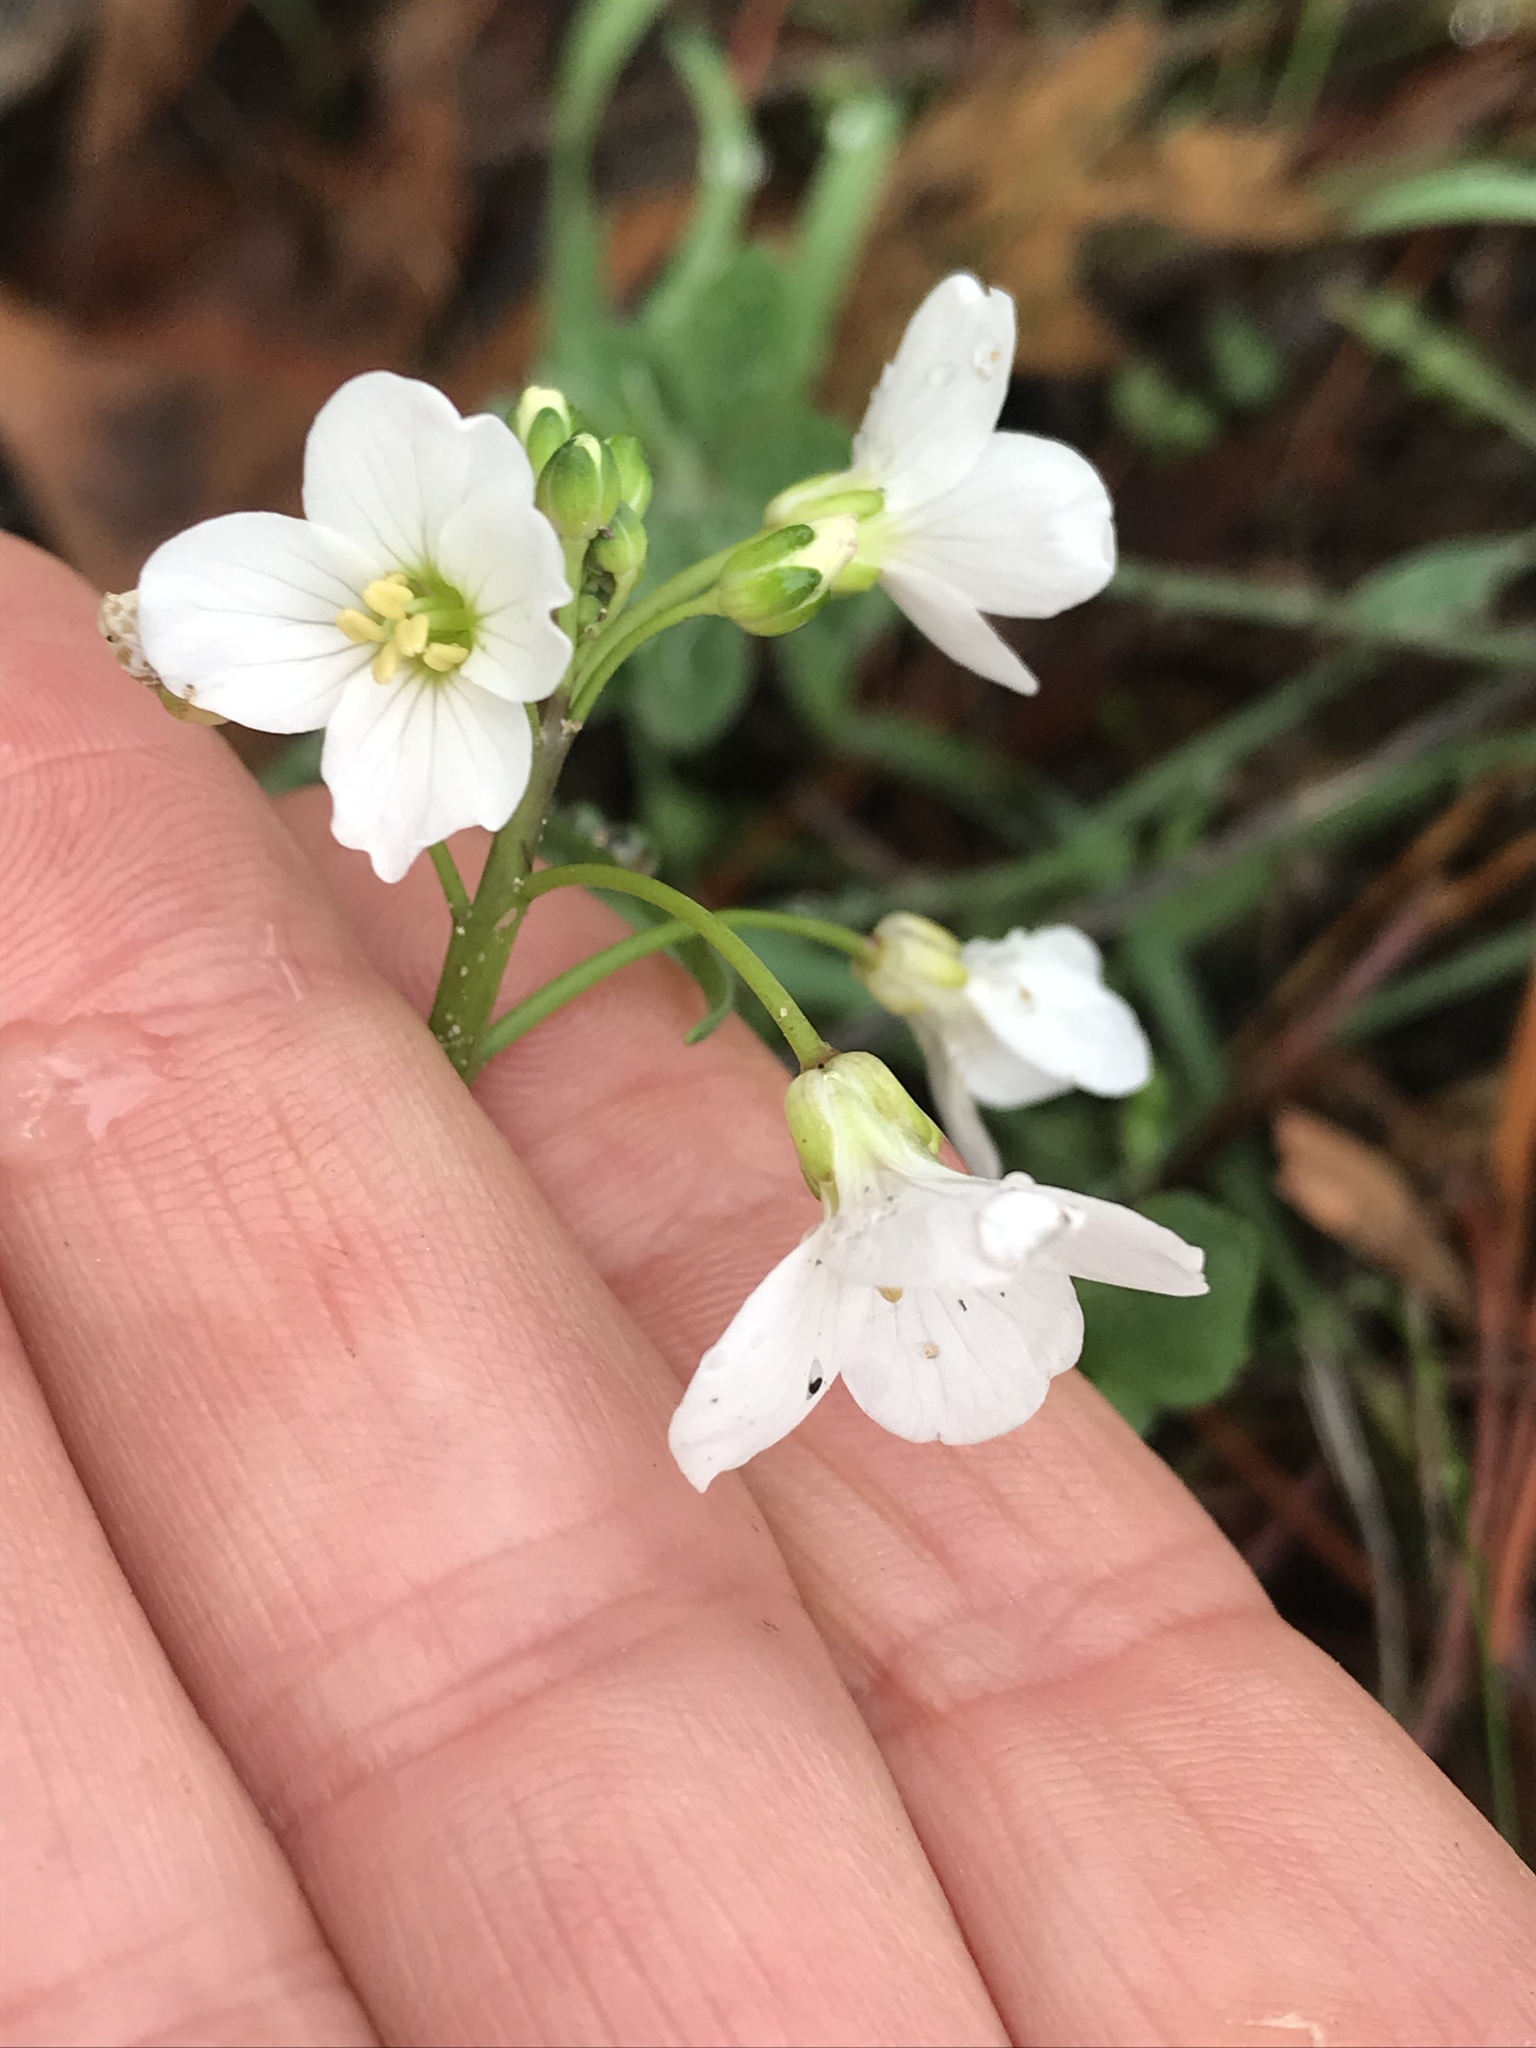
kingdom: Plantae
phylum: Tracheophyta
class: Magnoliopsida
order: Brassicales
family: Brassicaceae
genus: Cardamine
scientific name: Cardamine californica
